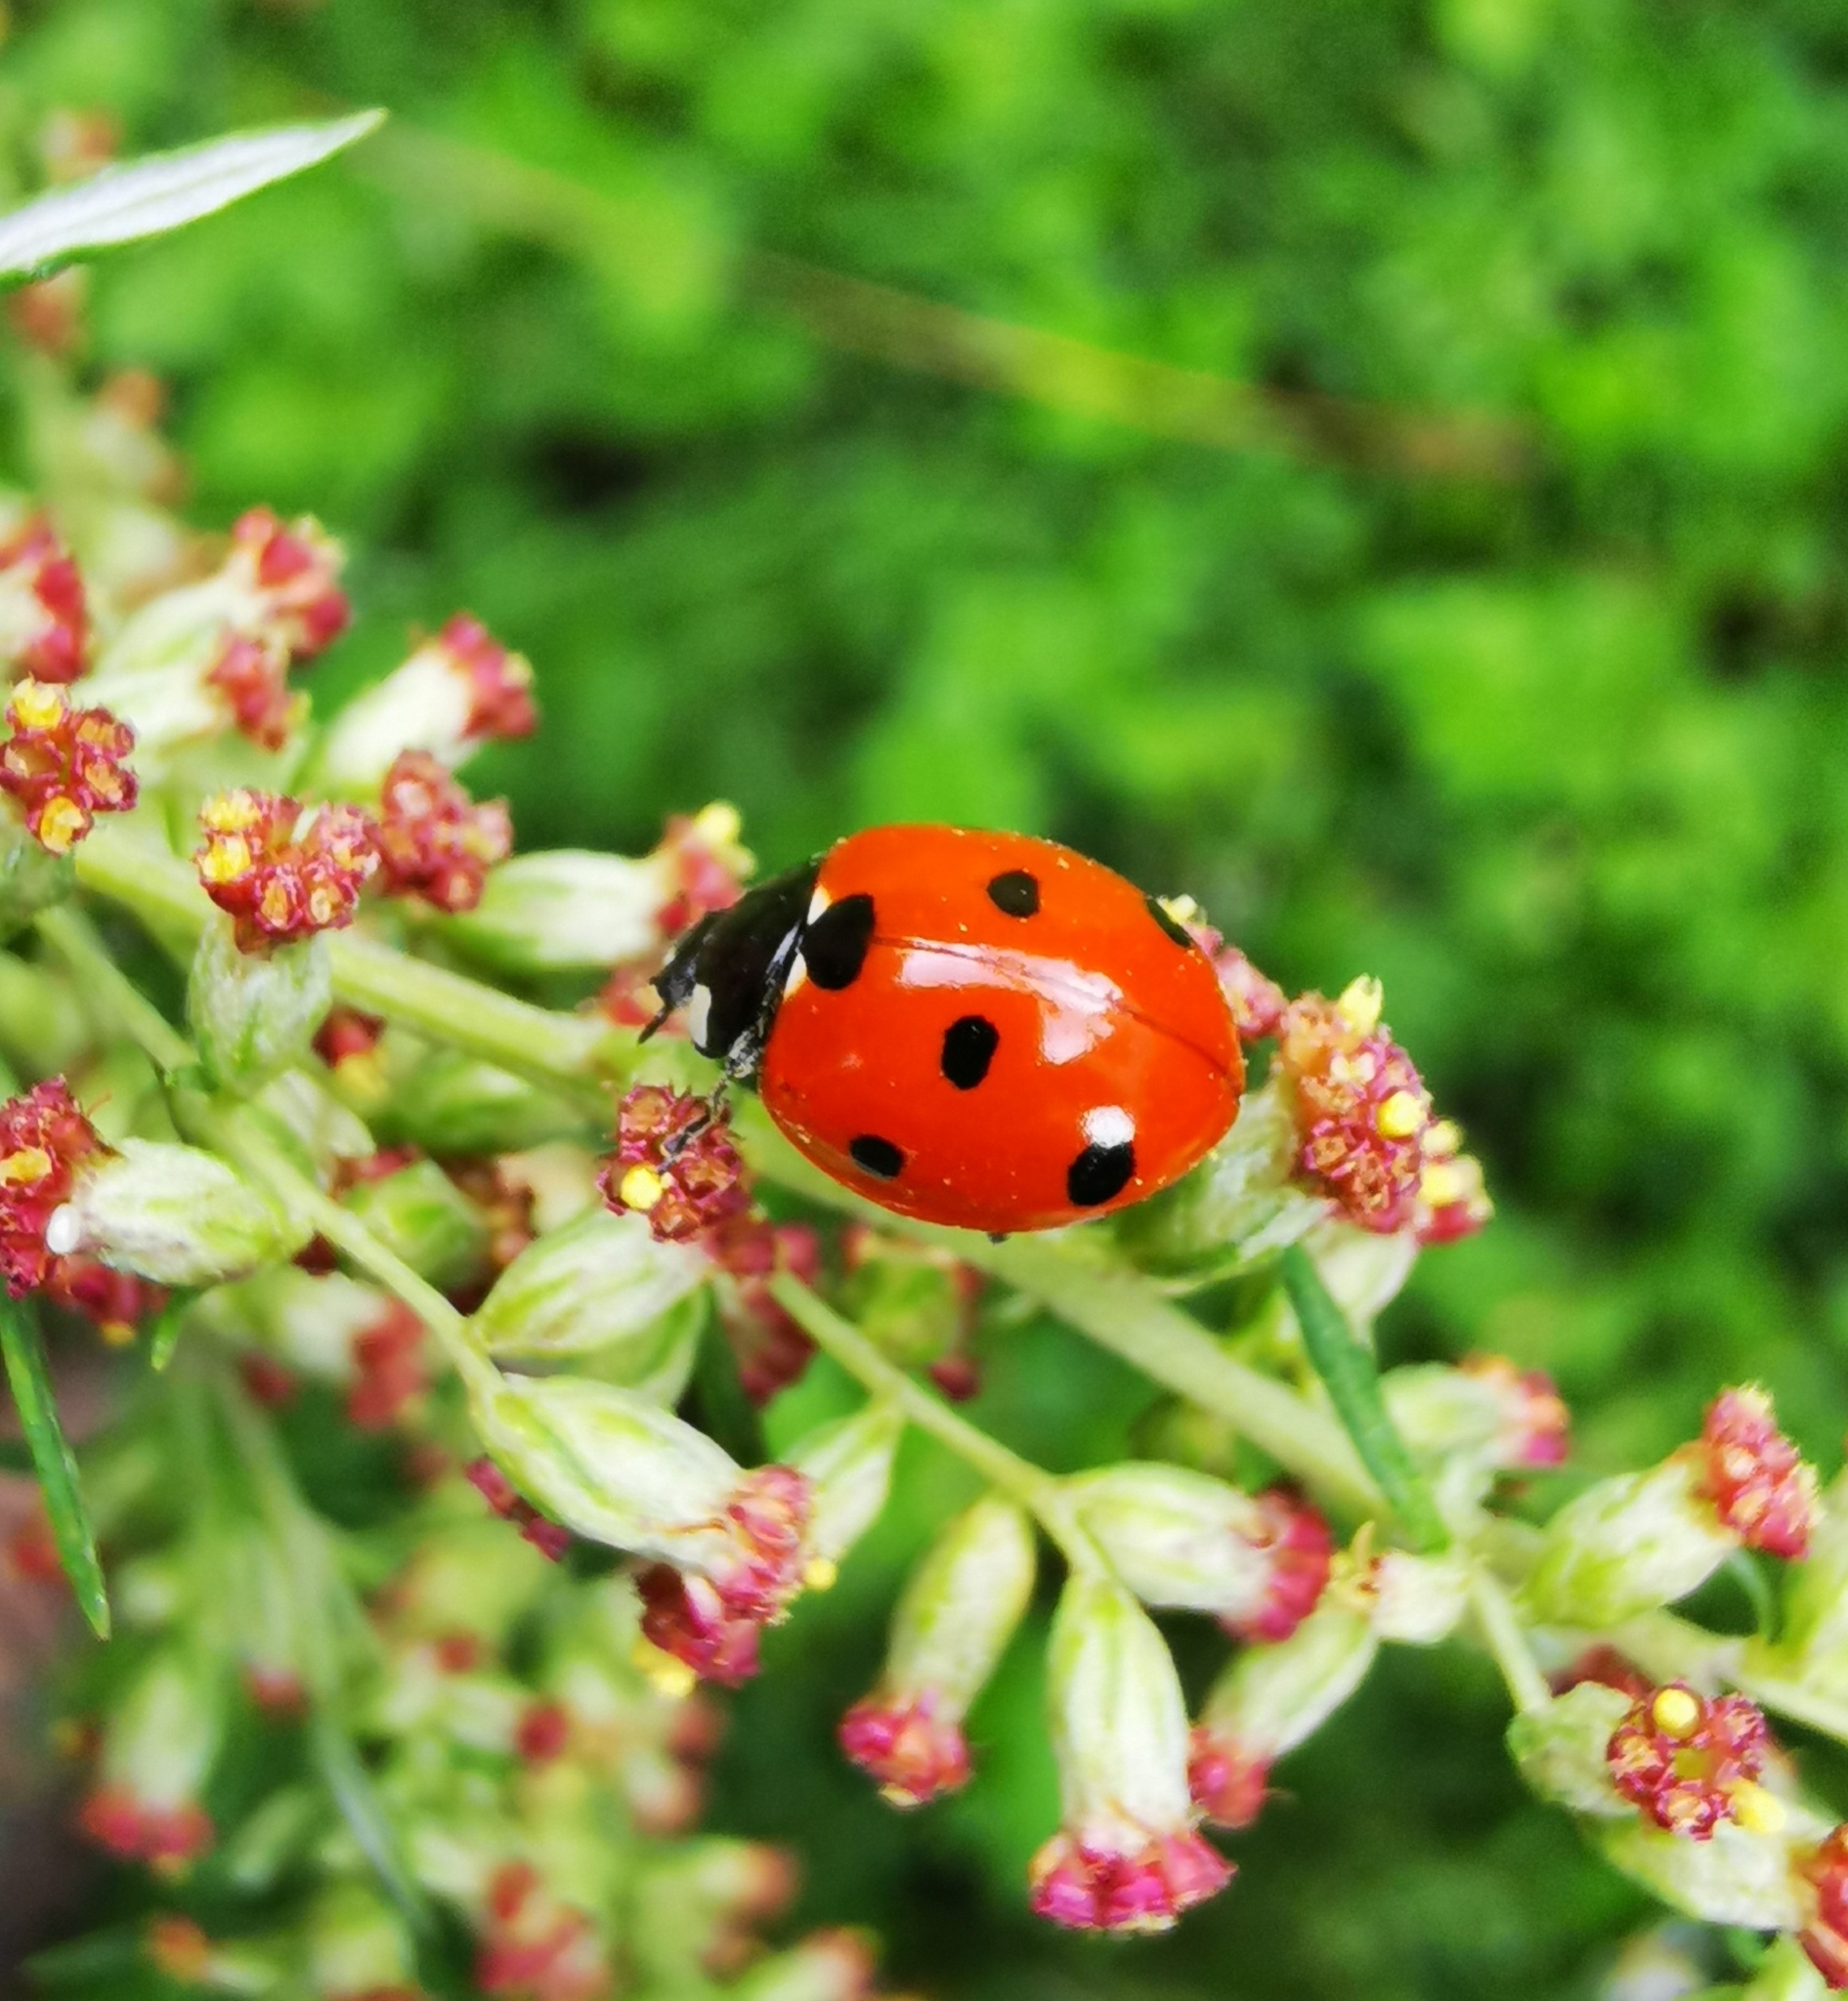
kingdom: Animalia
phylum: Arthropoda
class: Insecta
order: Coleoptera
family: Coccinellidae
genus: Coccinella
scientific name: Coccinella septempunctata
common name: Sevenspotted lady beetle
